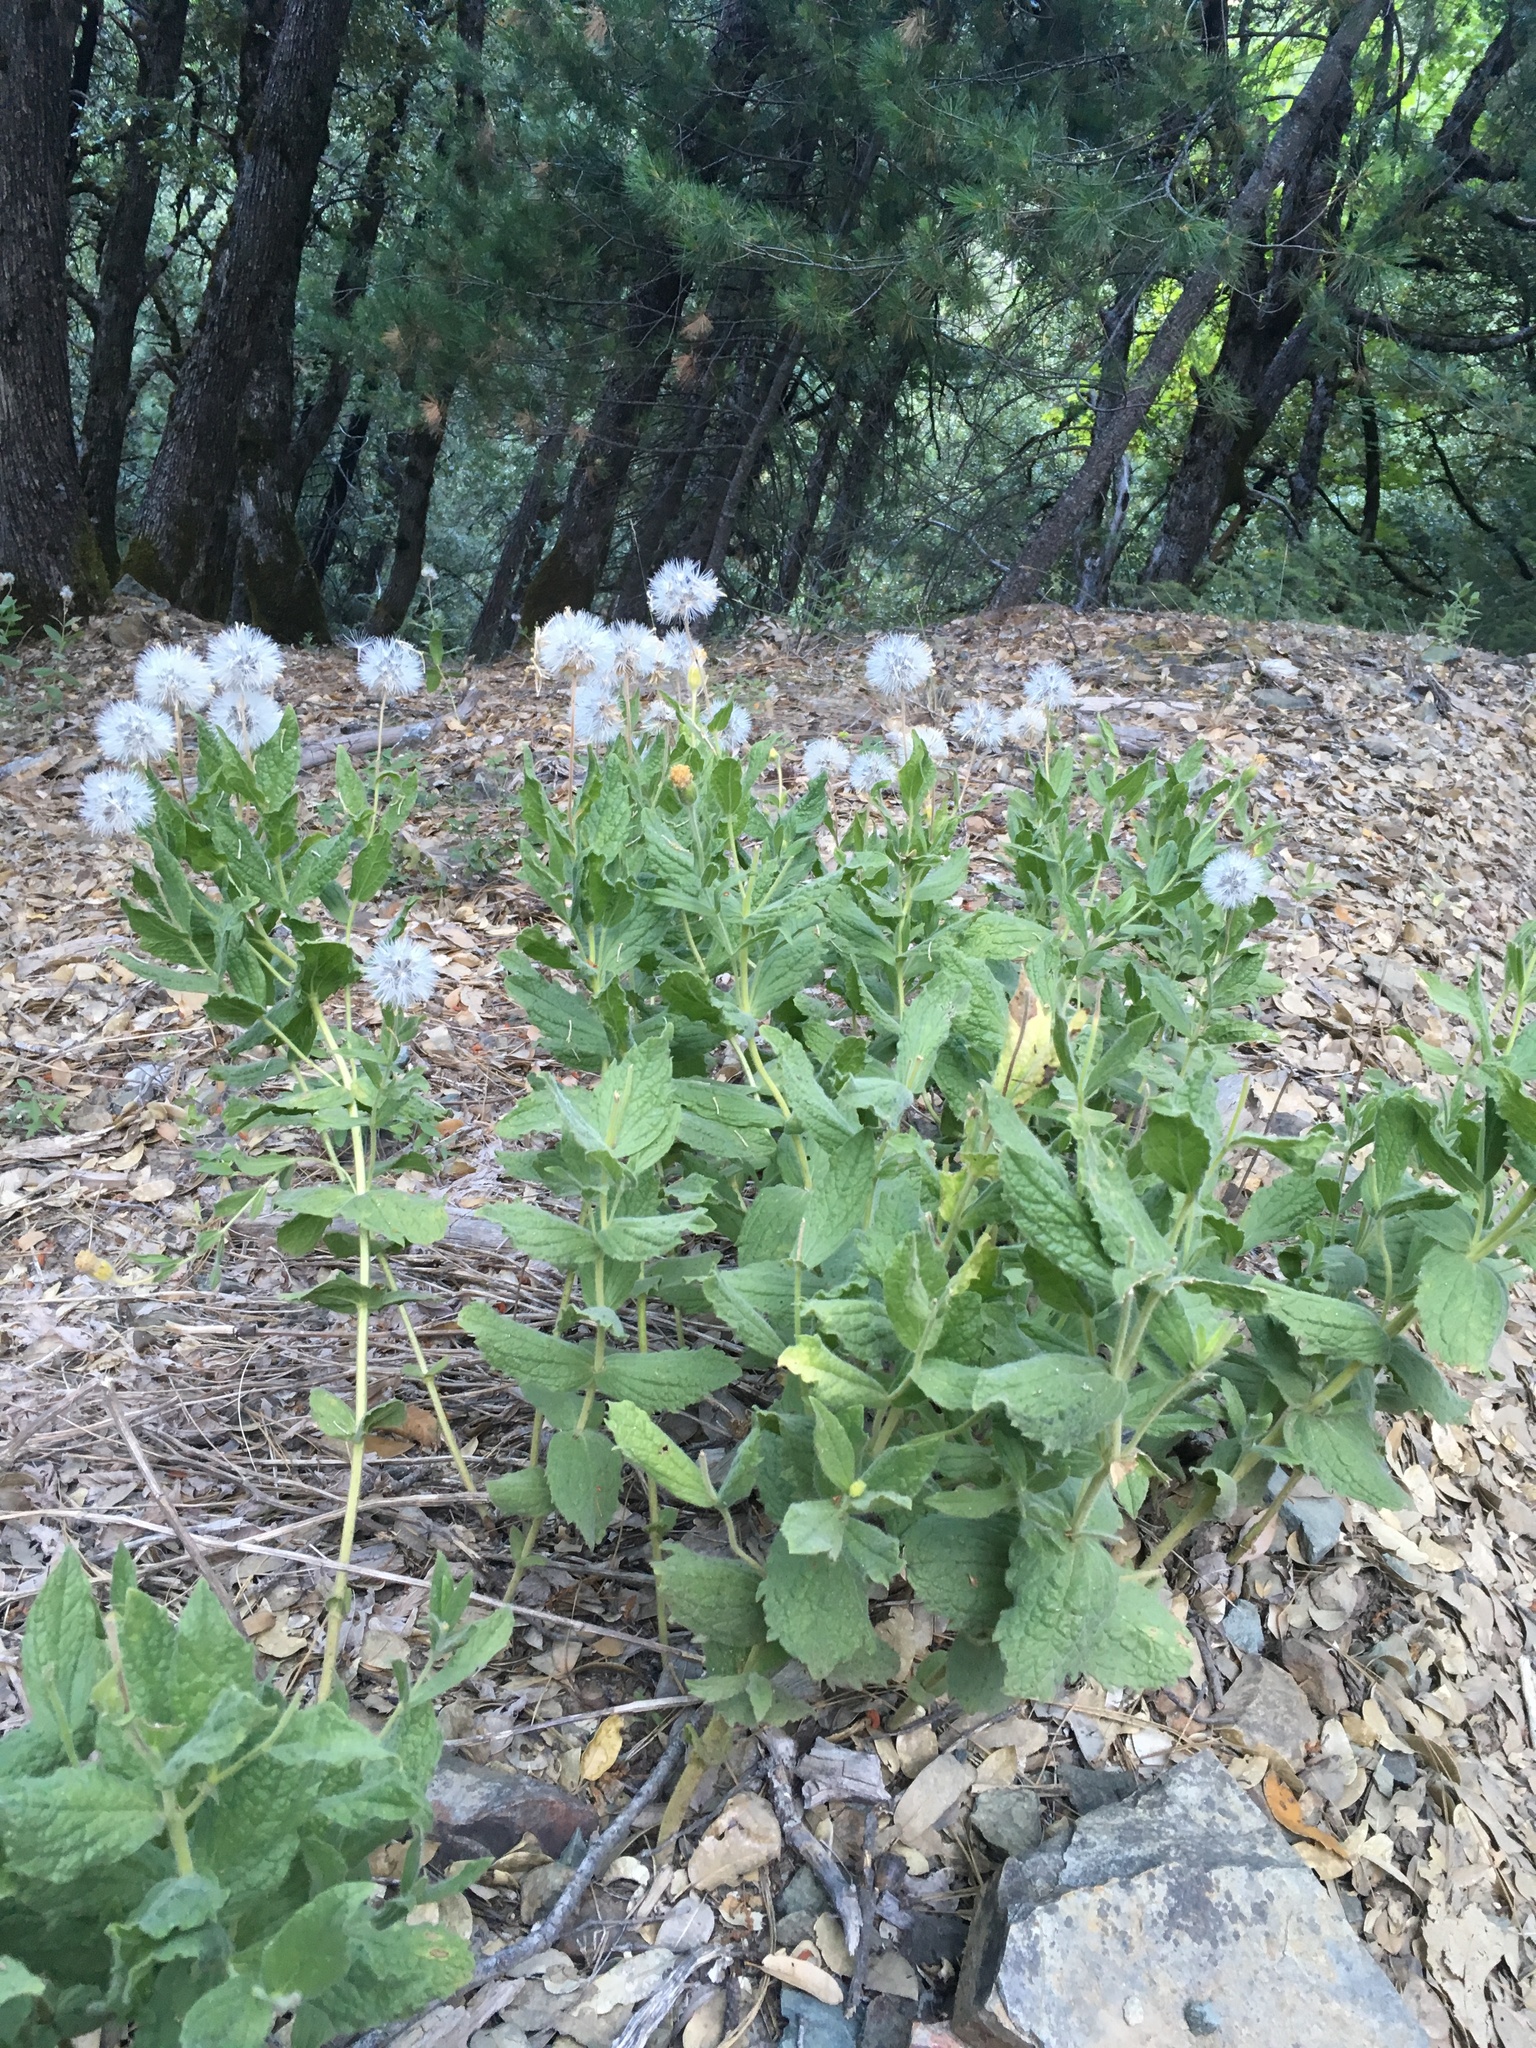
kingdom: Plantae
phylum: Tracheophyta
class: Magnoliopsida
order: Asterales
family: Asteraceae
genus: Arnica
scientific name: Arnica venosa
